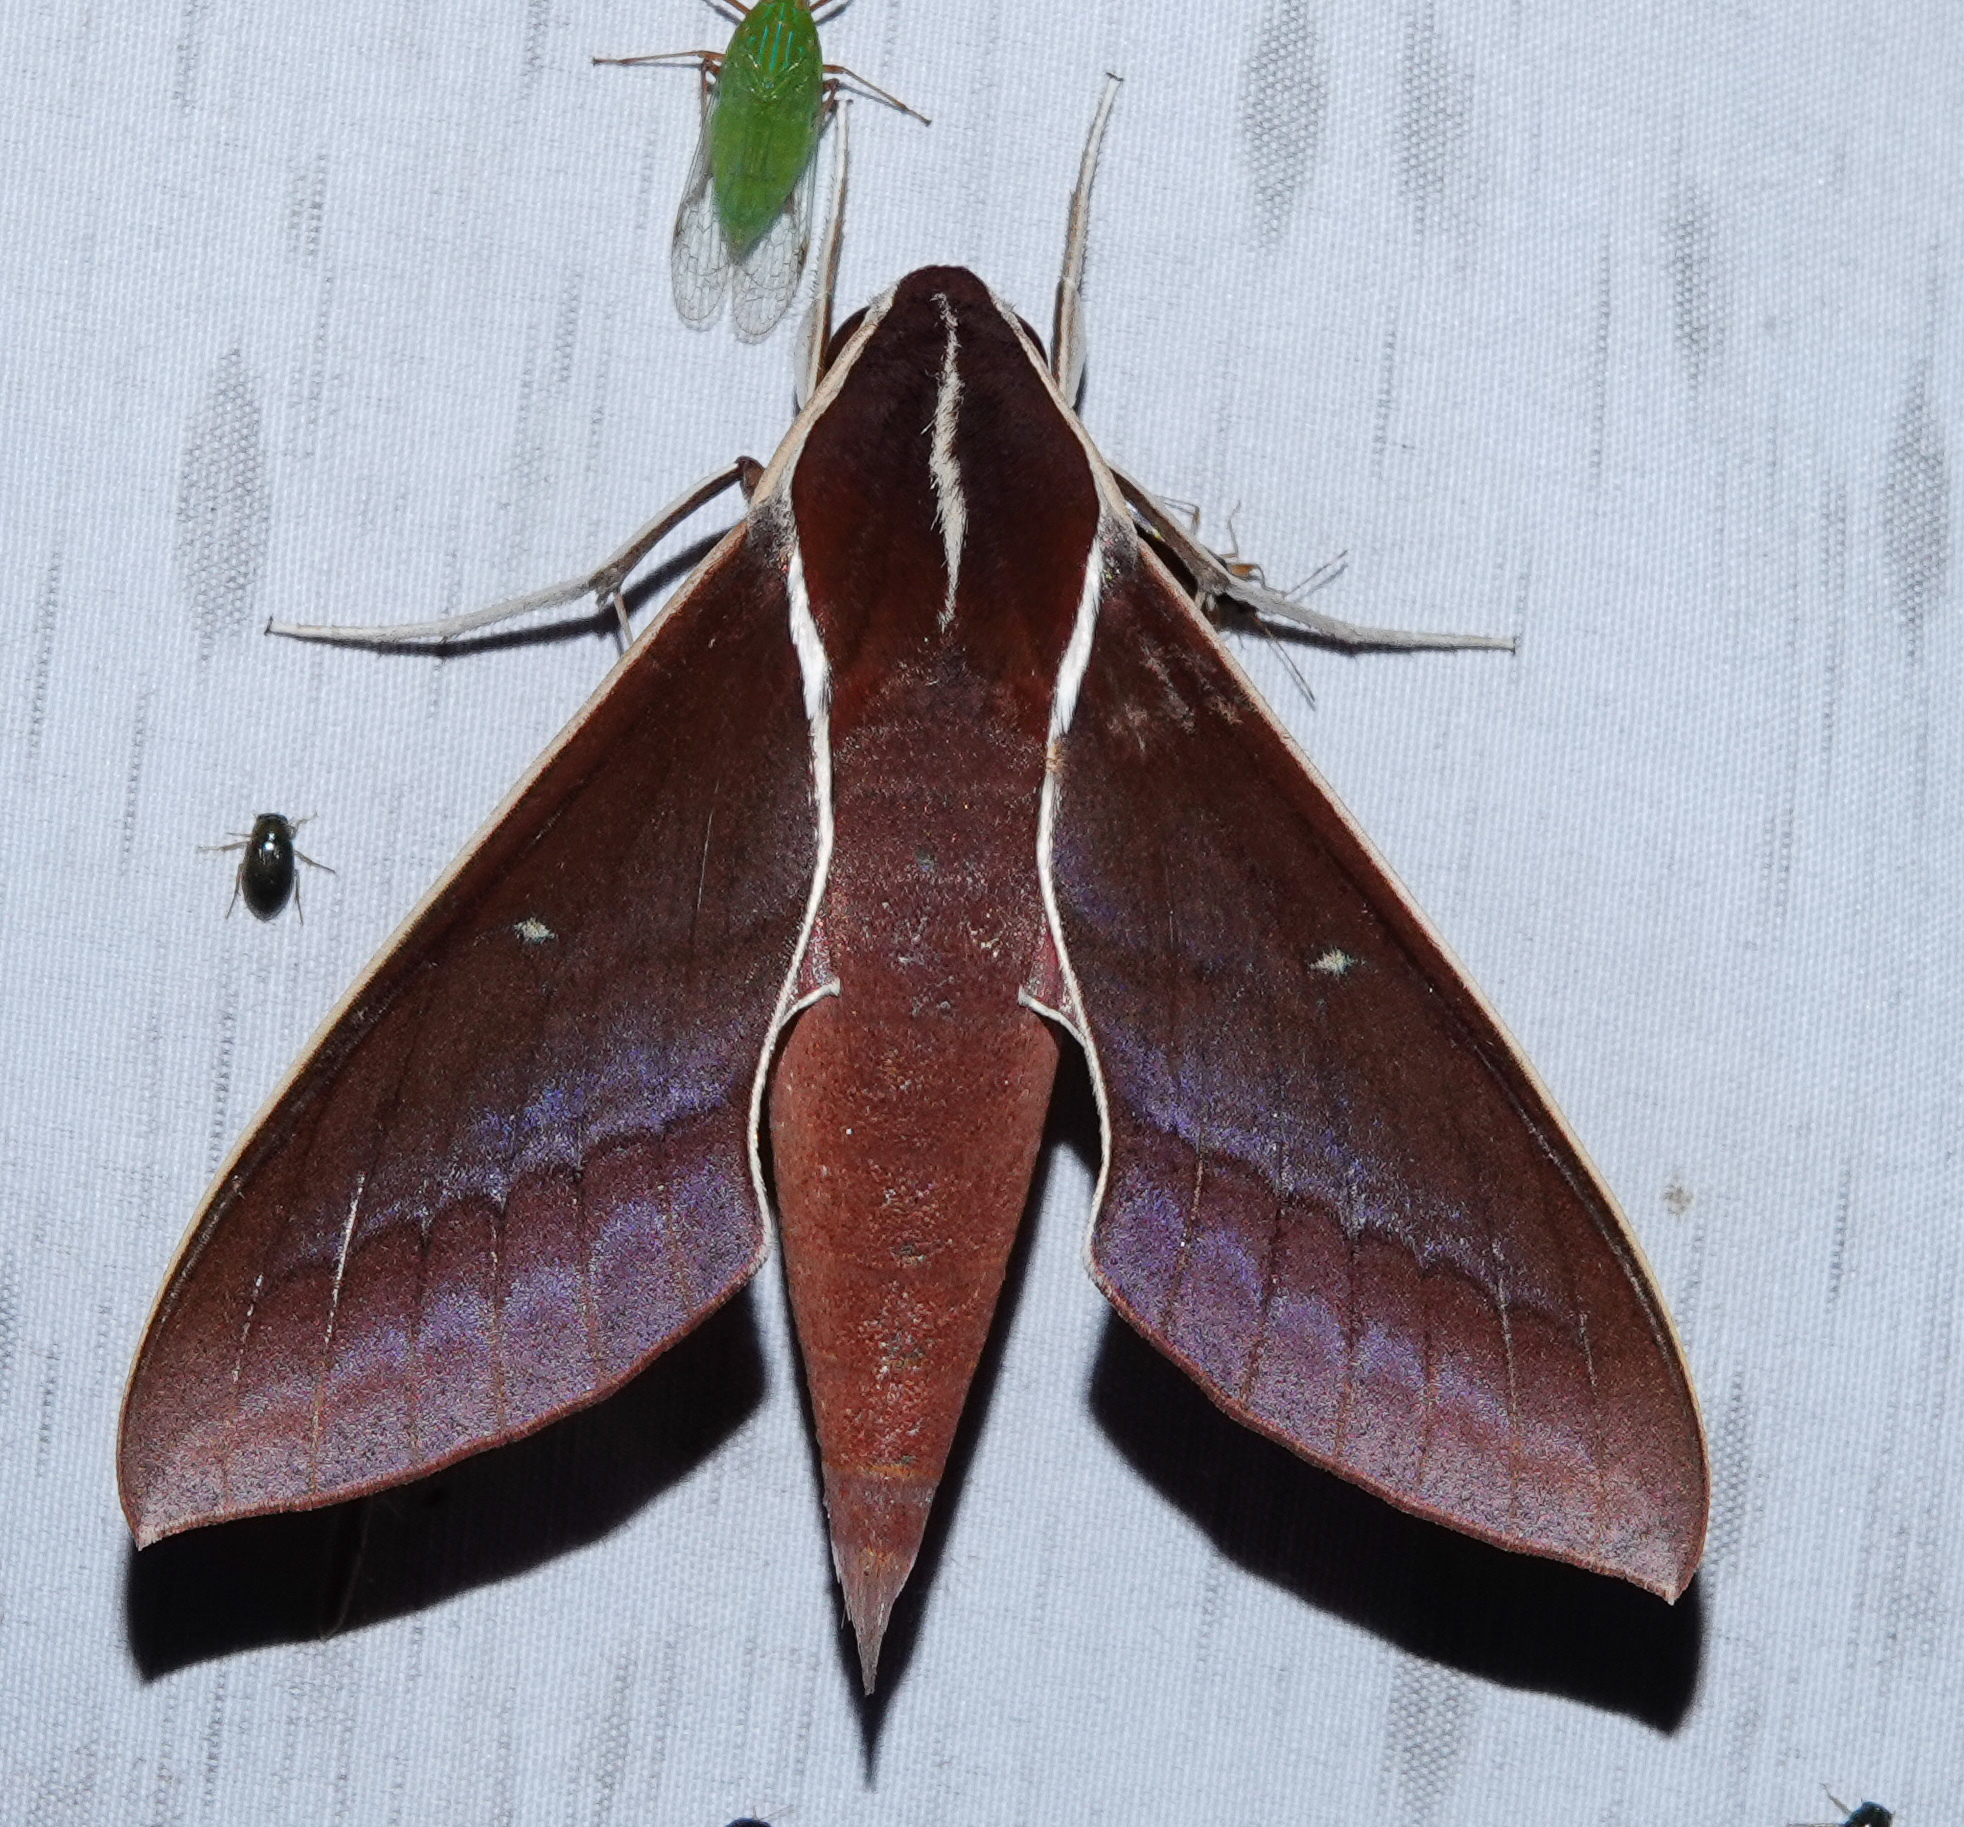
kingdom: Animalia
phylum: Arthropoda
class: Insecta
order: Lepidoptera
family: Sphingidae
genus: Theretra
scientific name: Theretra pallicosta
